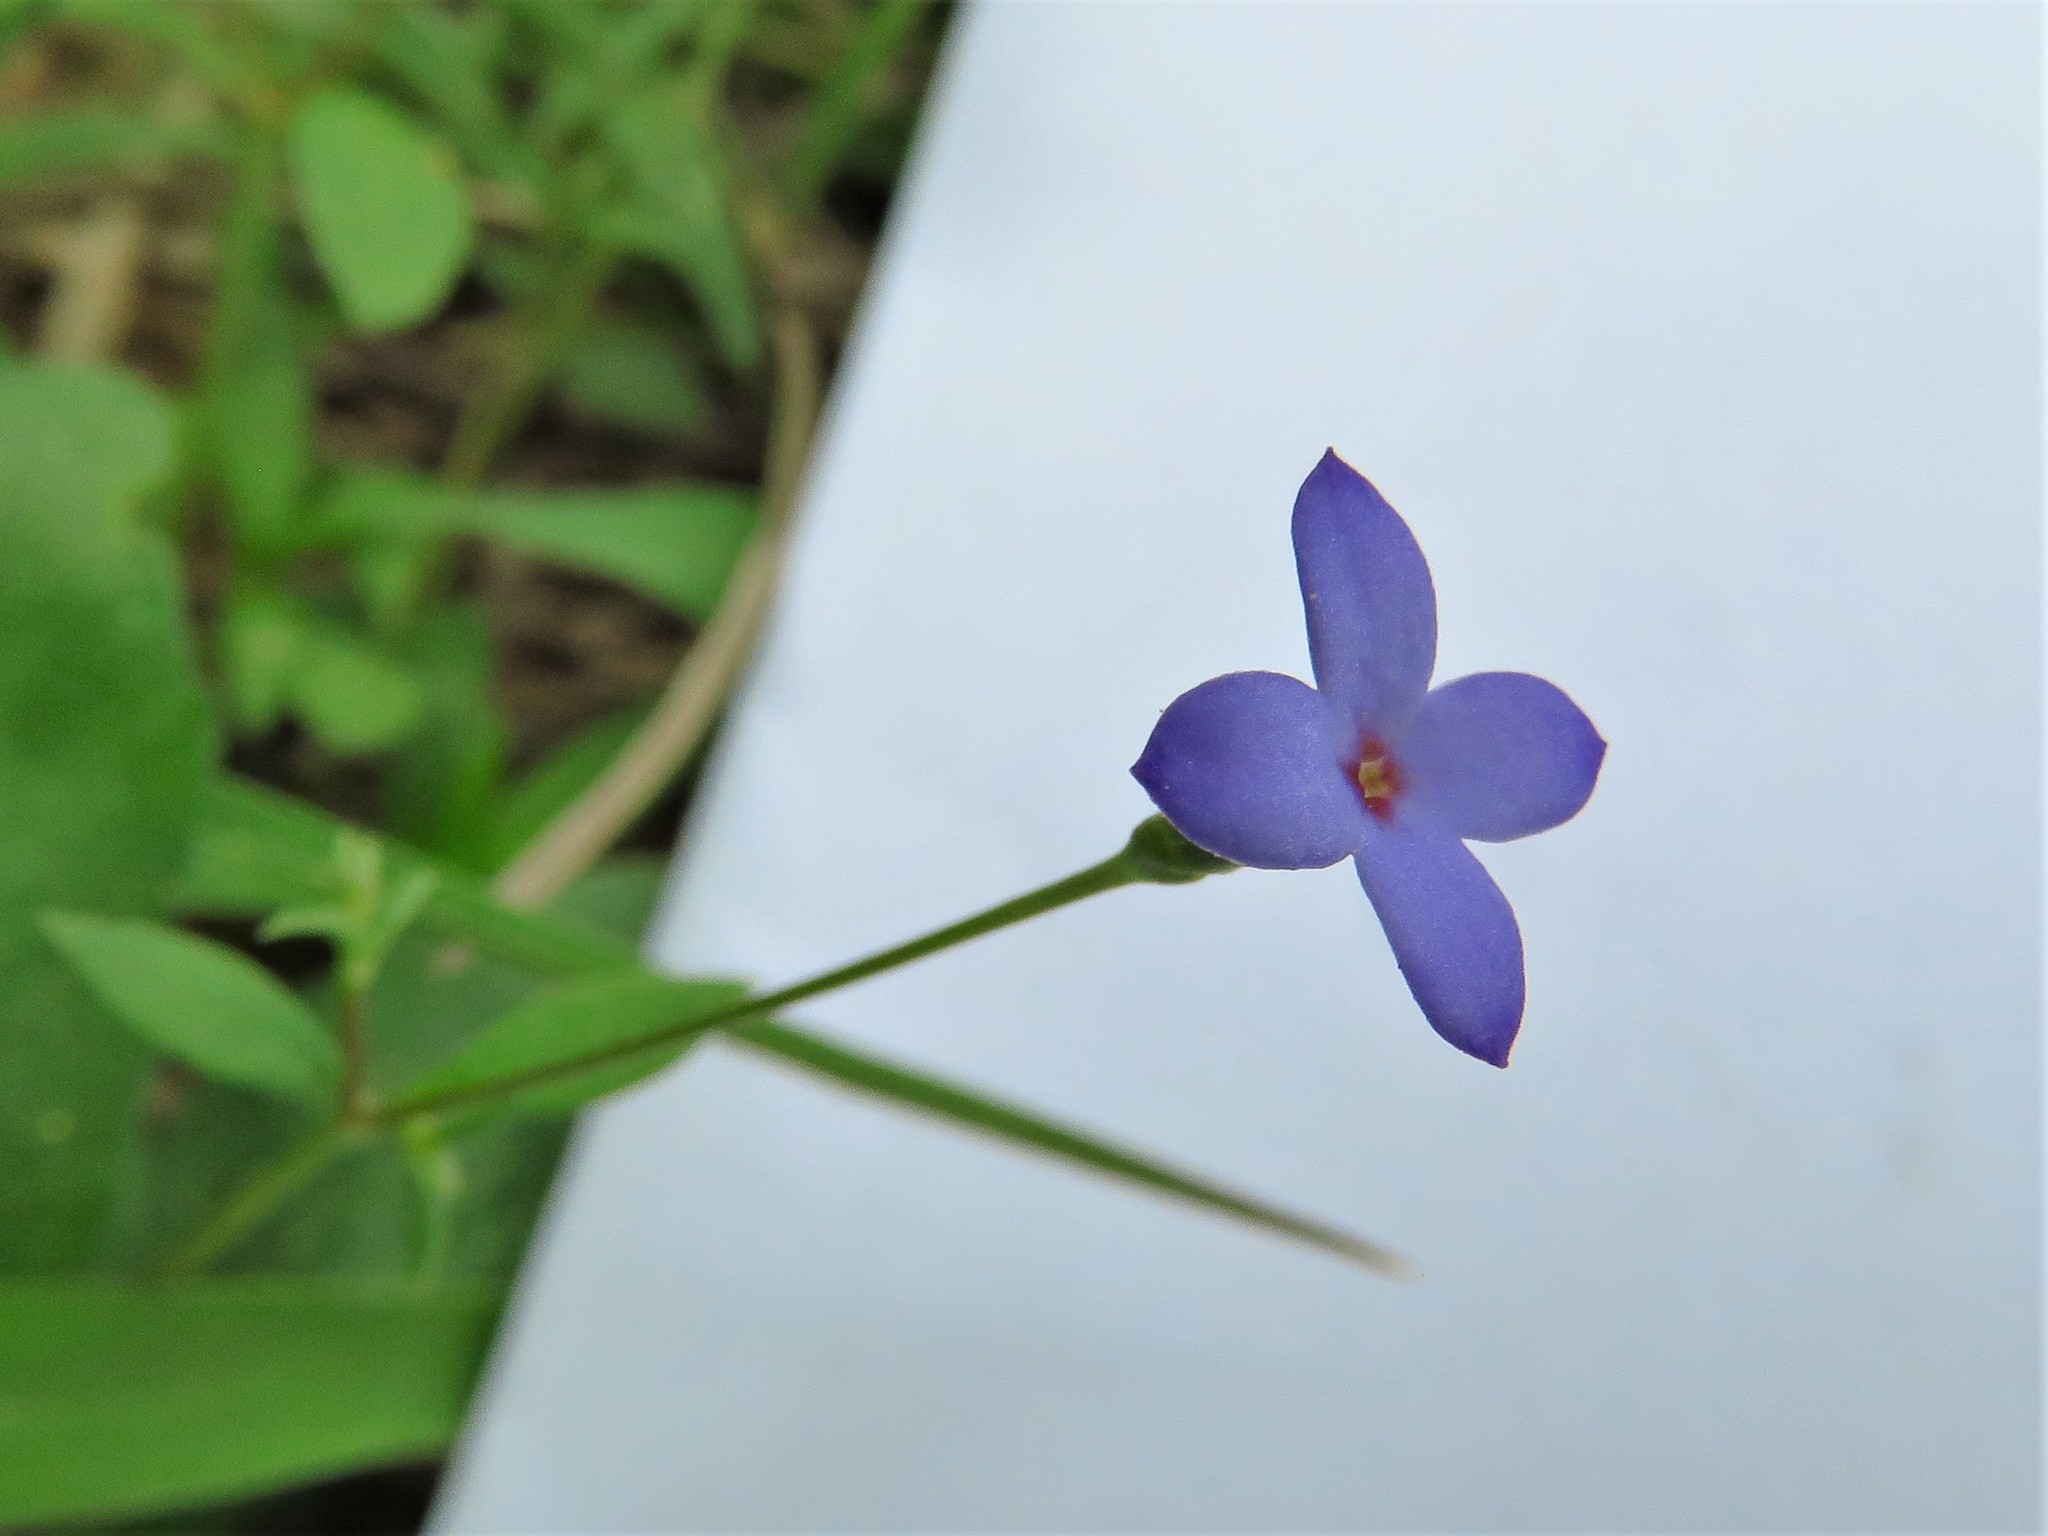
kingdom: Plantae
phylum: Tracheophyta
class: Magnoliopsida
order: Gentianales
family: Rubiaceae
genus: Houstonia
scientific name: Houstonia pusilla
